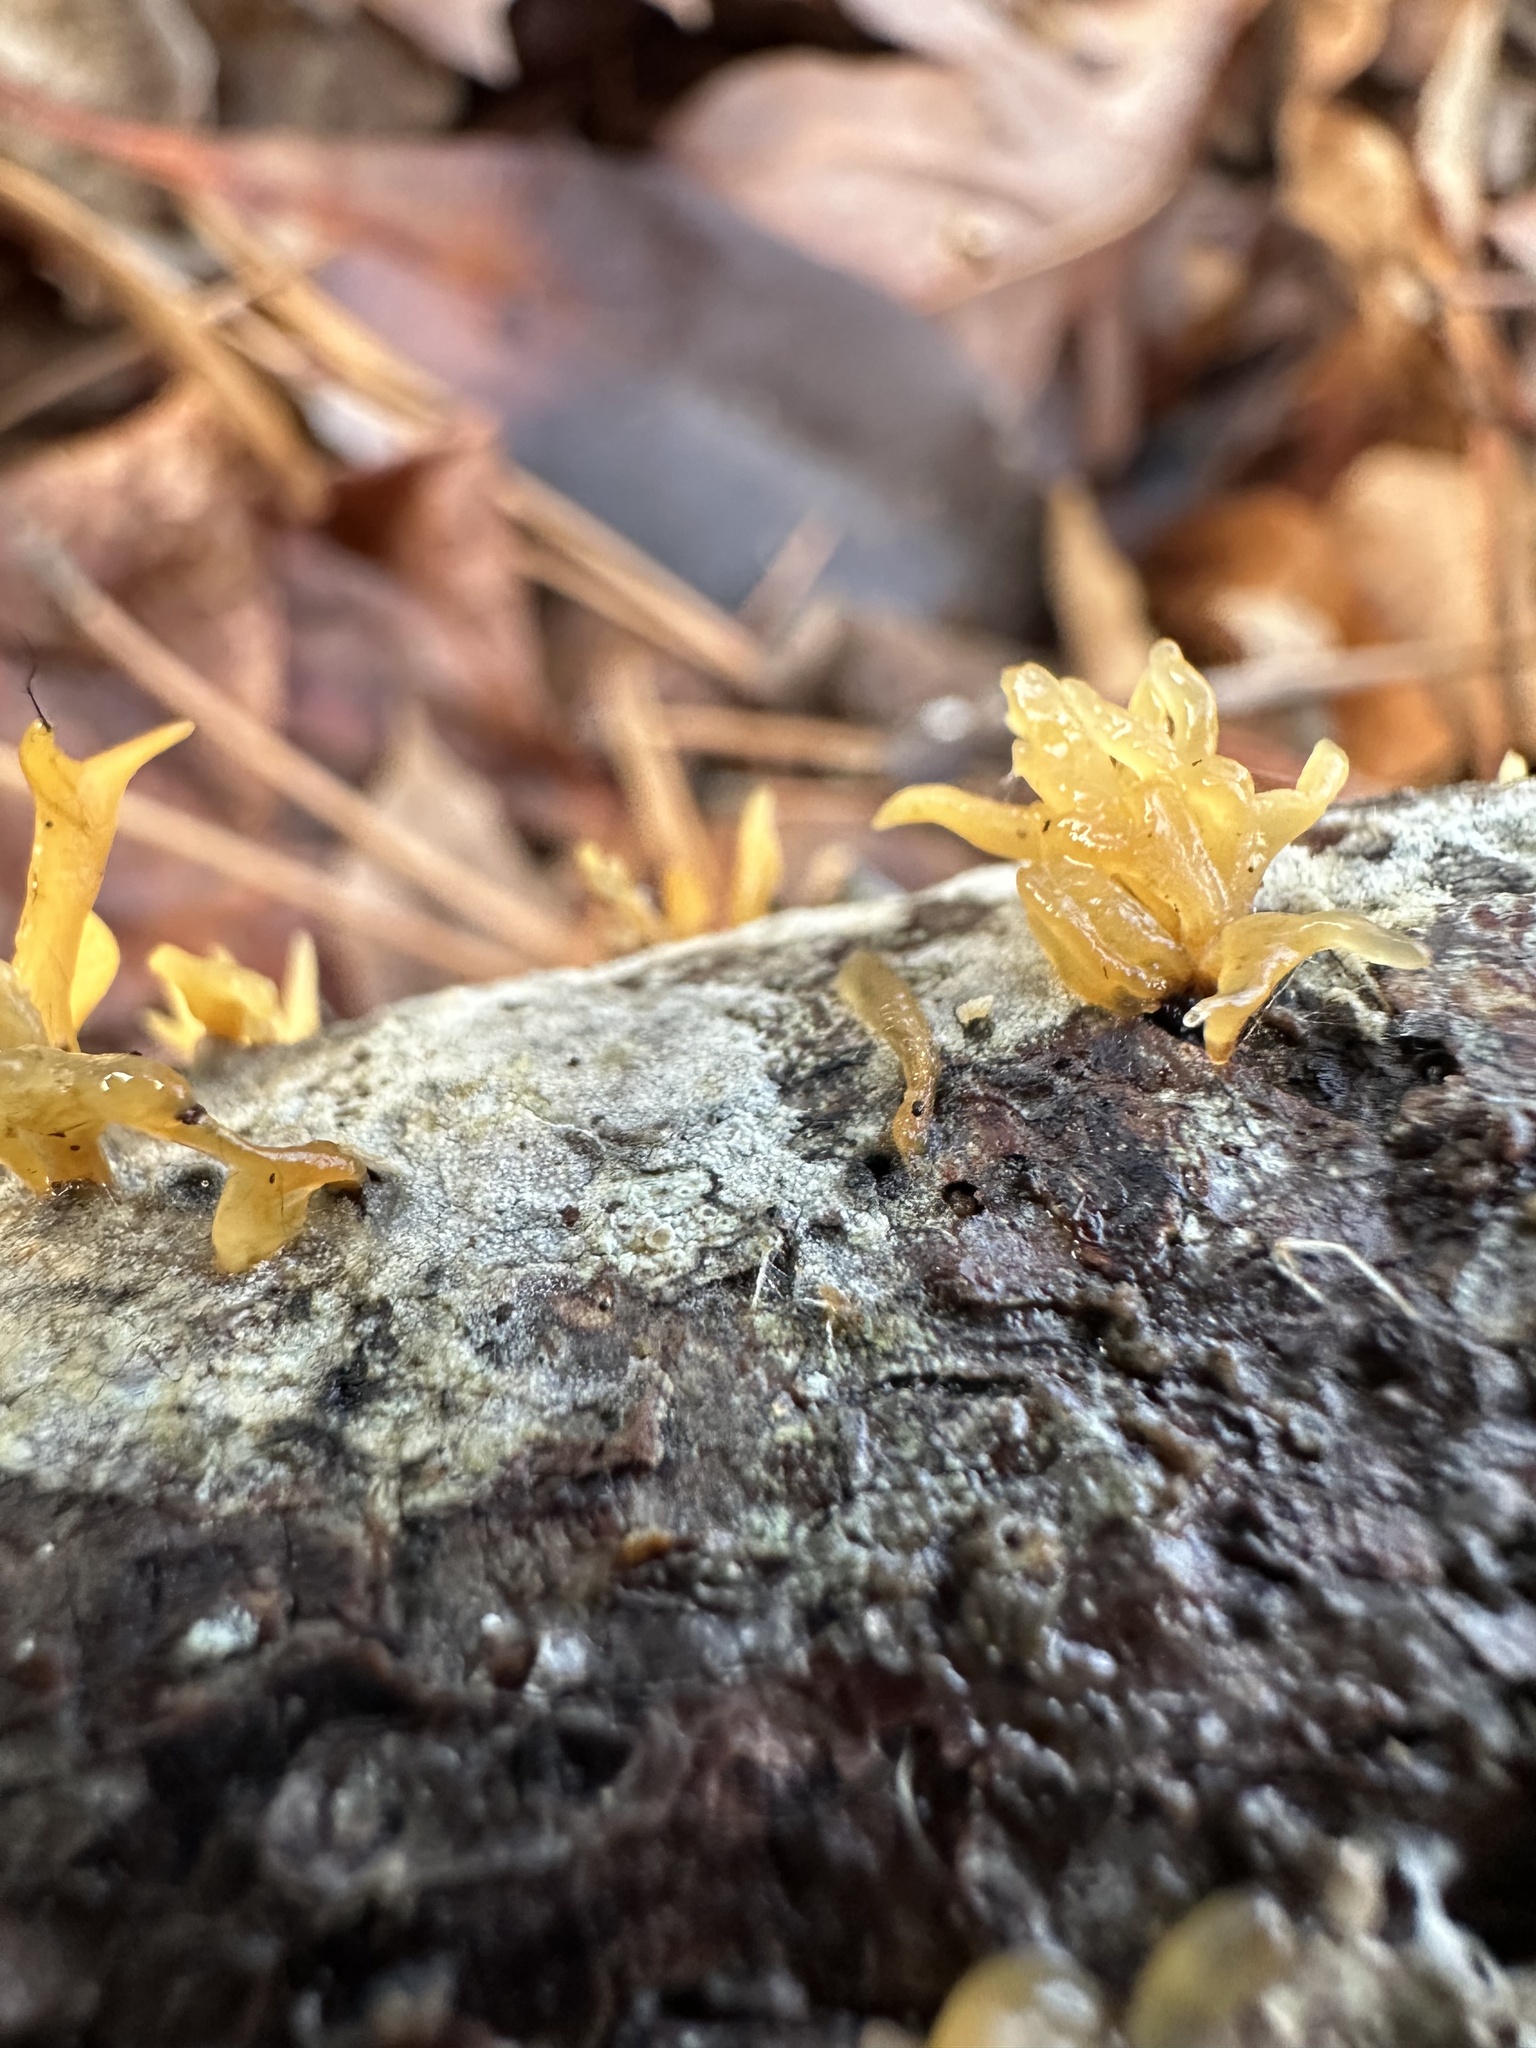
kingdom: Fungi
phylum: Basidiomycota
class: Dacrymycetes
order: Dacrymycetales
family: Dacrymycetaceae
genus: Calocera
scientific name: Calocera cornea
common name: Small stagshorn
